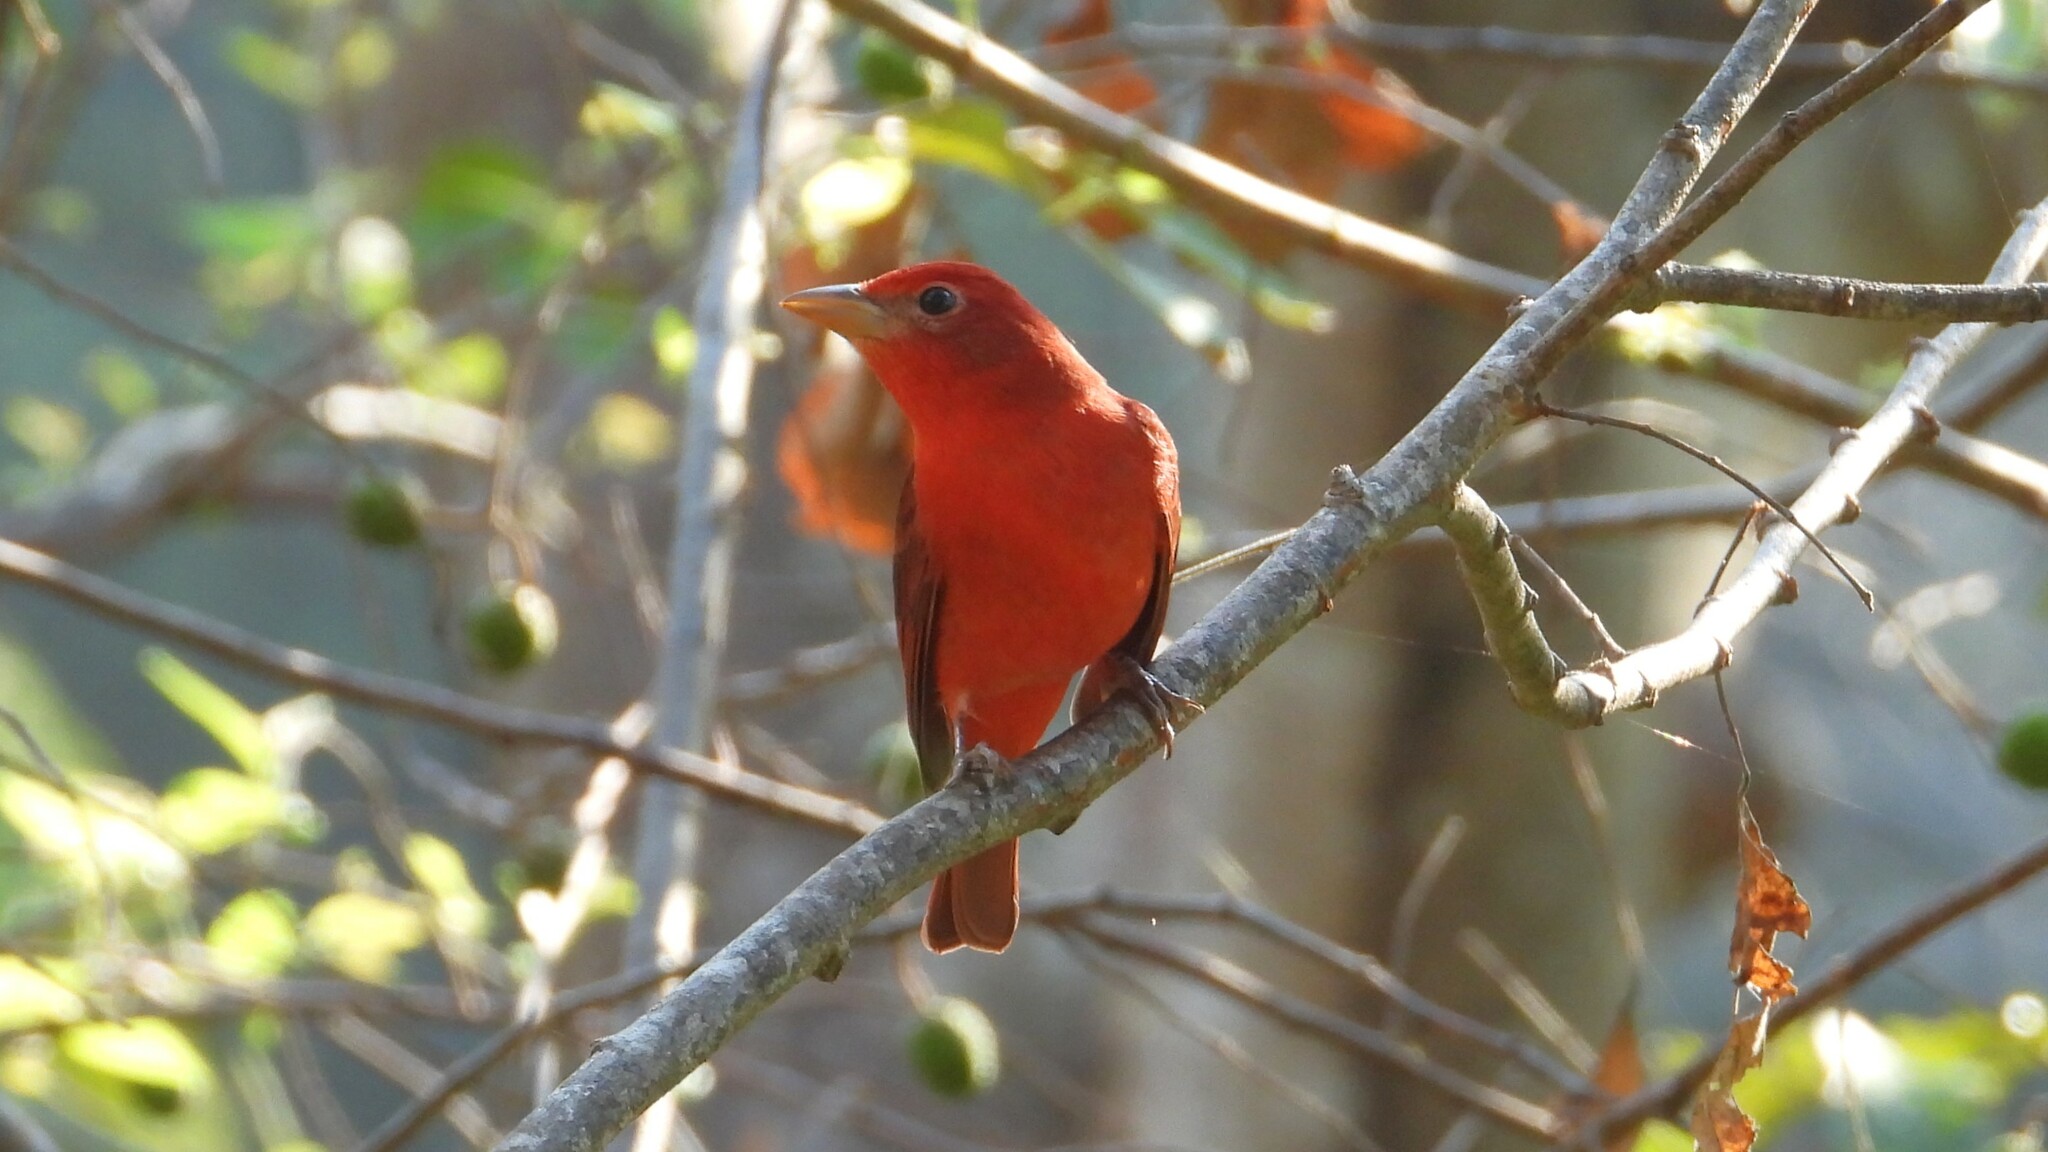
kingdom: Animalia
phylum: Chordata
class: Aves
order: Passeriformes
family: Cardinalidae
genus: Piranga
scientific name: Piranga rubra
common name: Summer tanager
